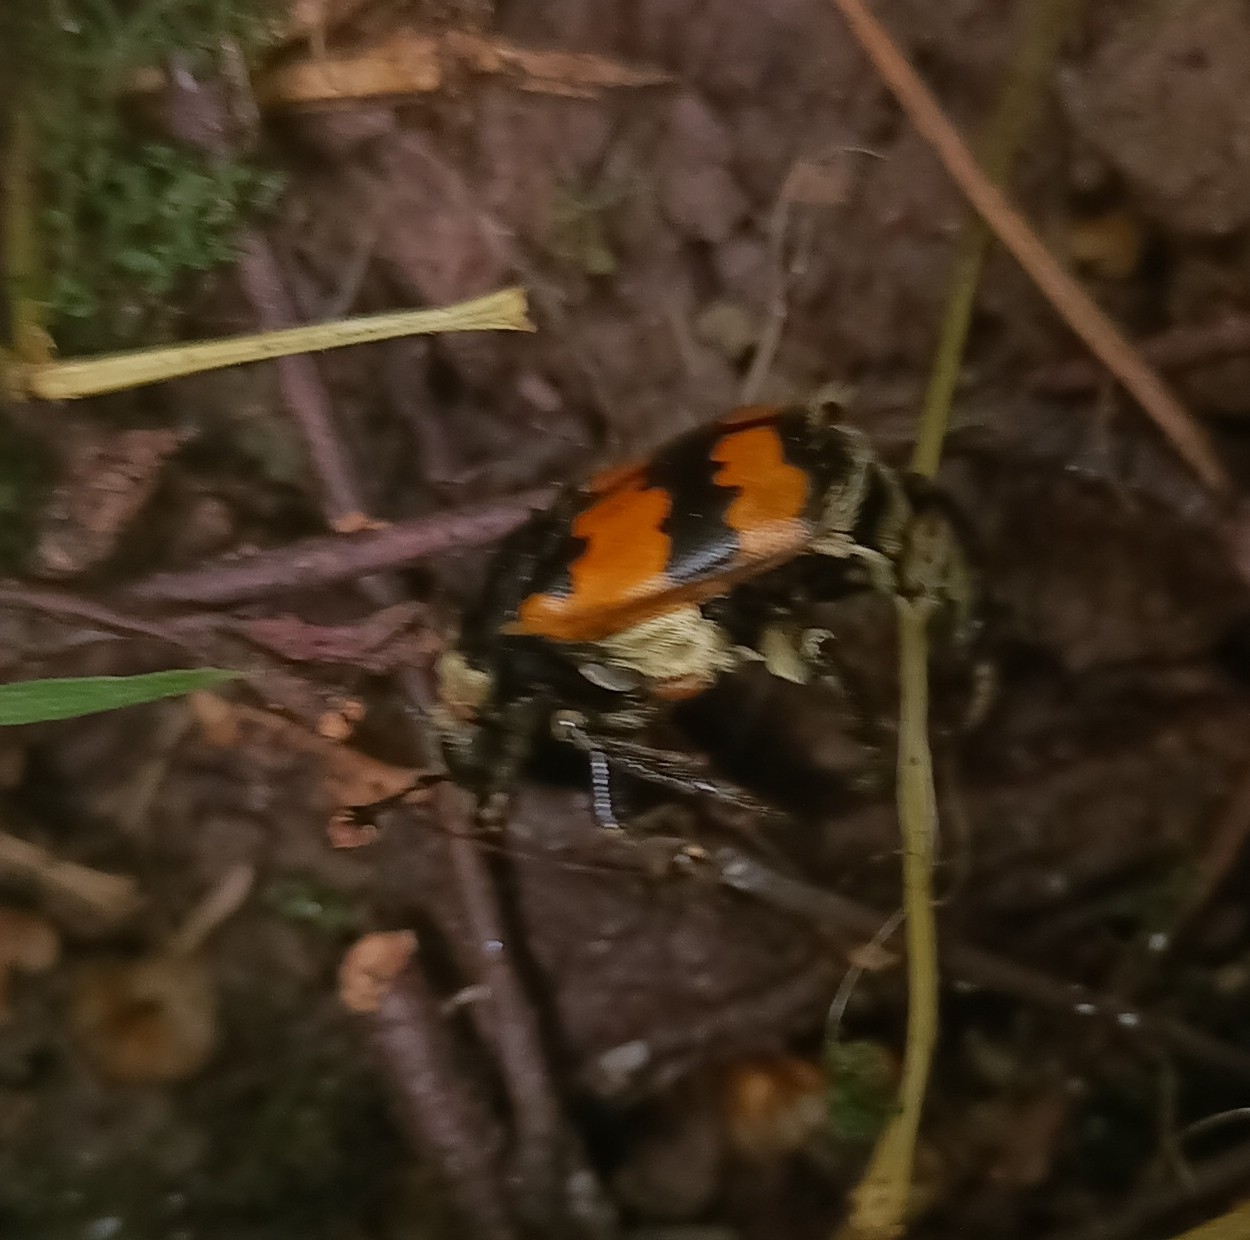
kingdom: Animalia
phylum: Arthropoda
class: Insecta
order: Coleoptera
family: Staphylinidae
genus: Nicrophorus
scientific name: Nicrophorus vespillo
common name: Common burying beetle
